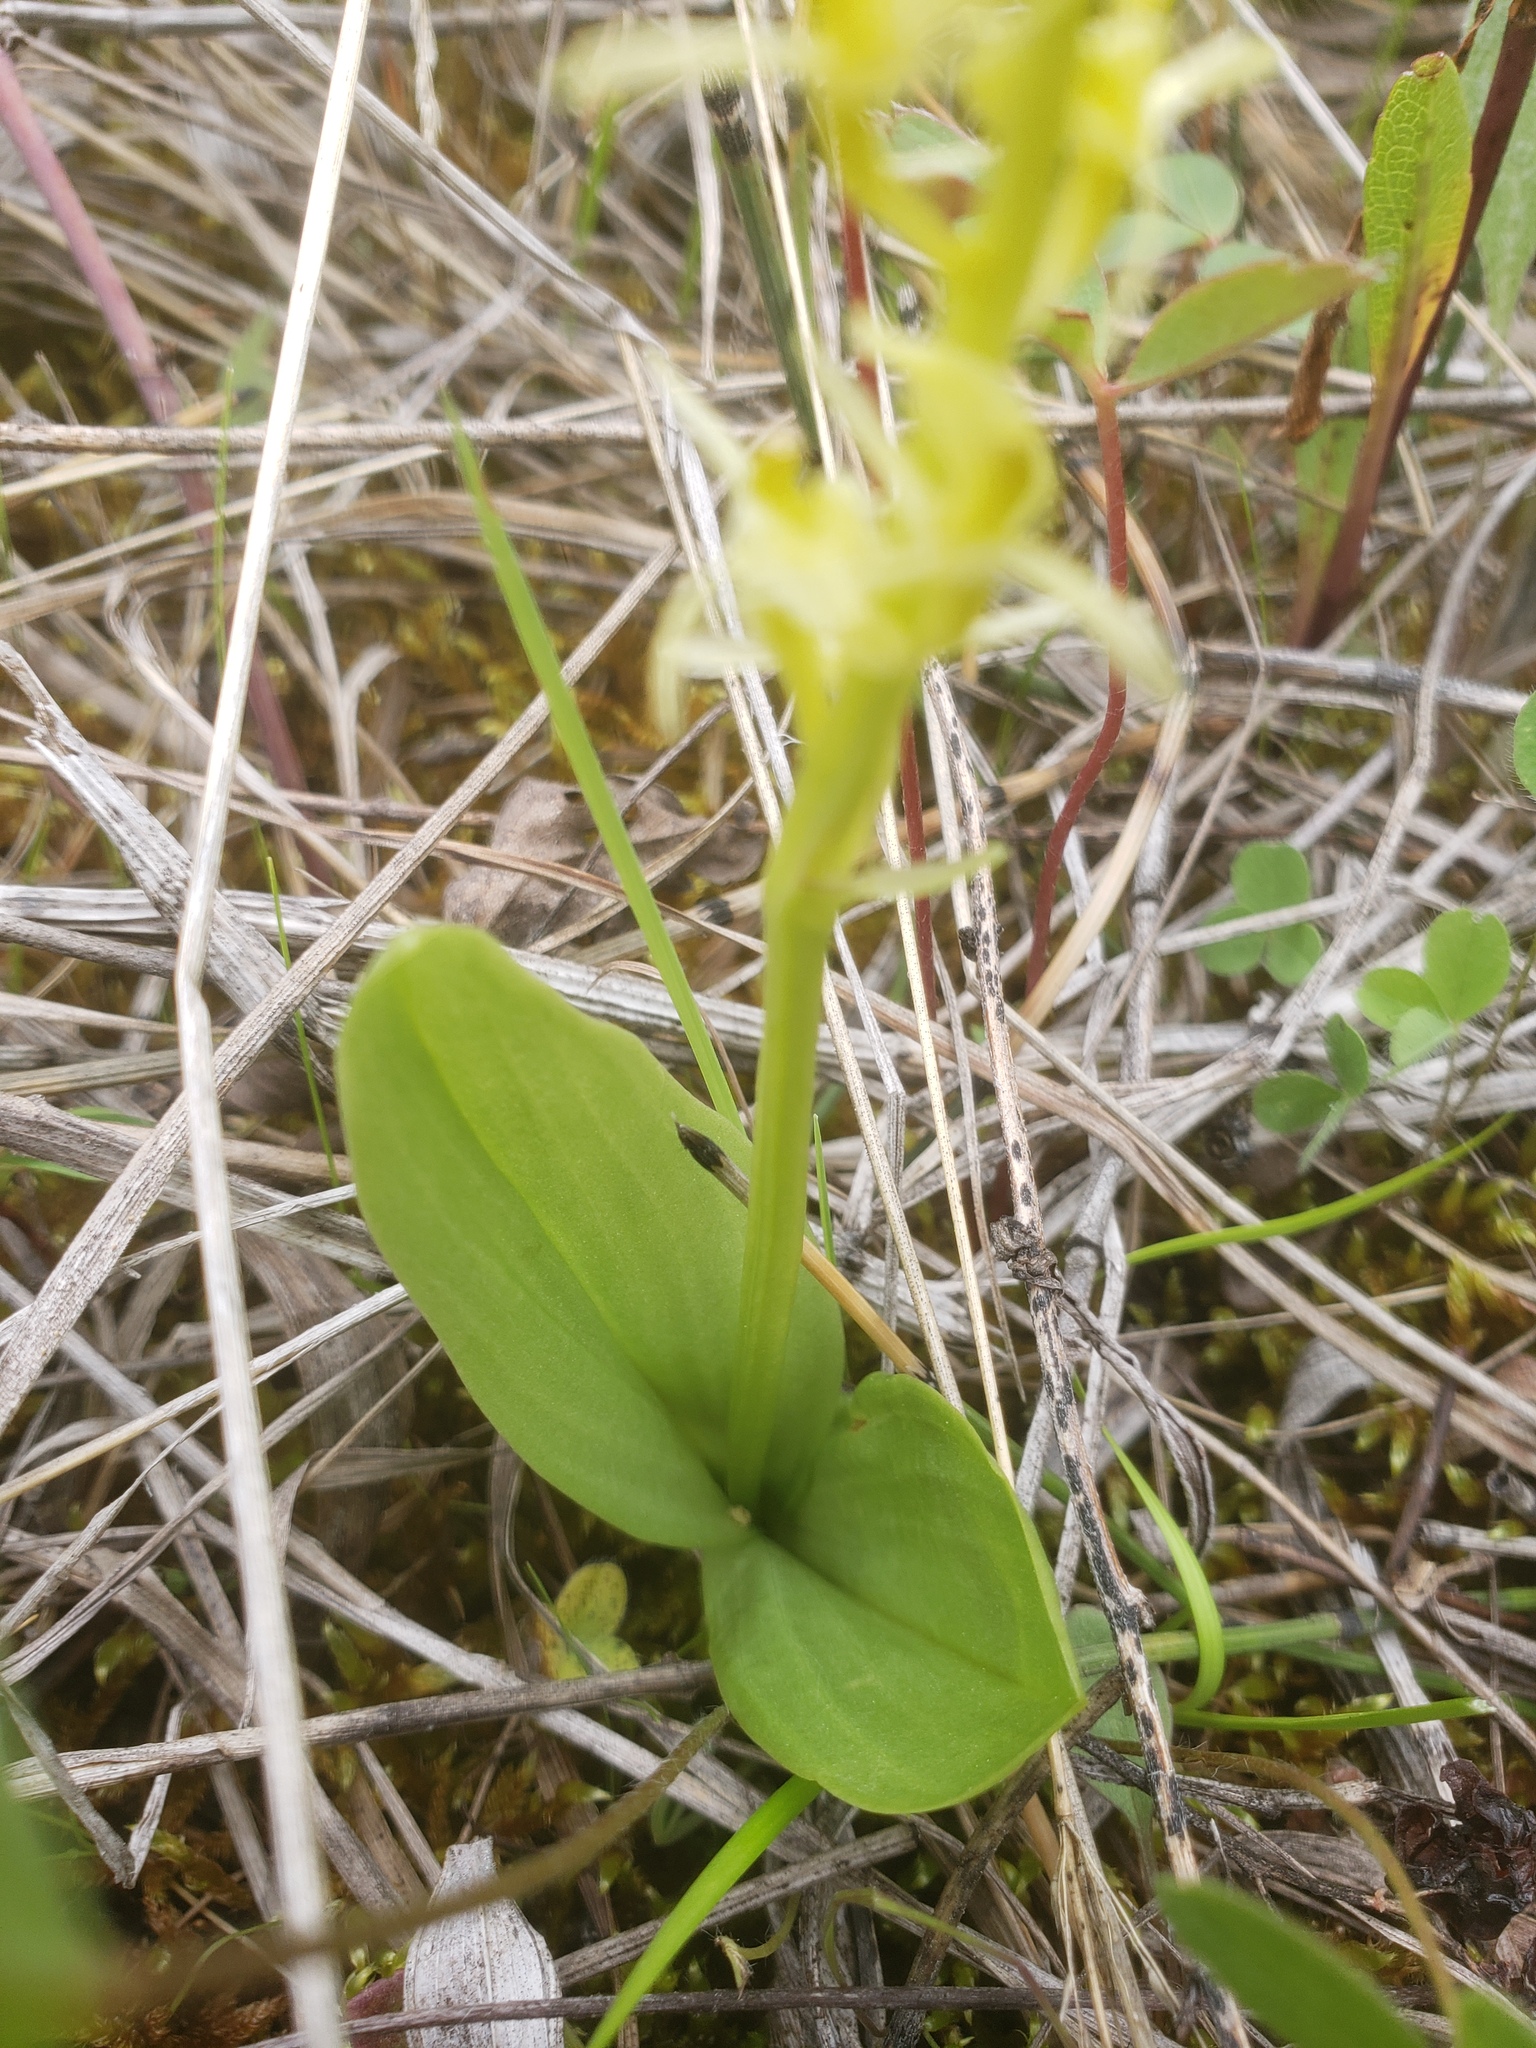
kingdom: Animalia
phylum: Arthropoda
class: Insecta
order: Coleoptera
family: Curculionidae
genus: Liparis
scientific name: Liparis loeselii
